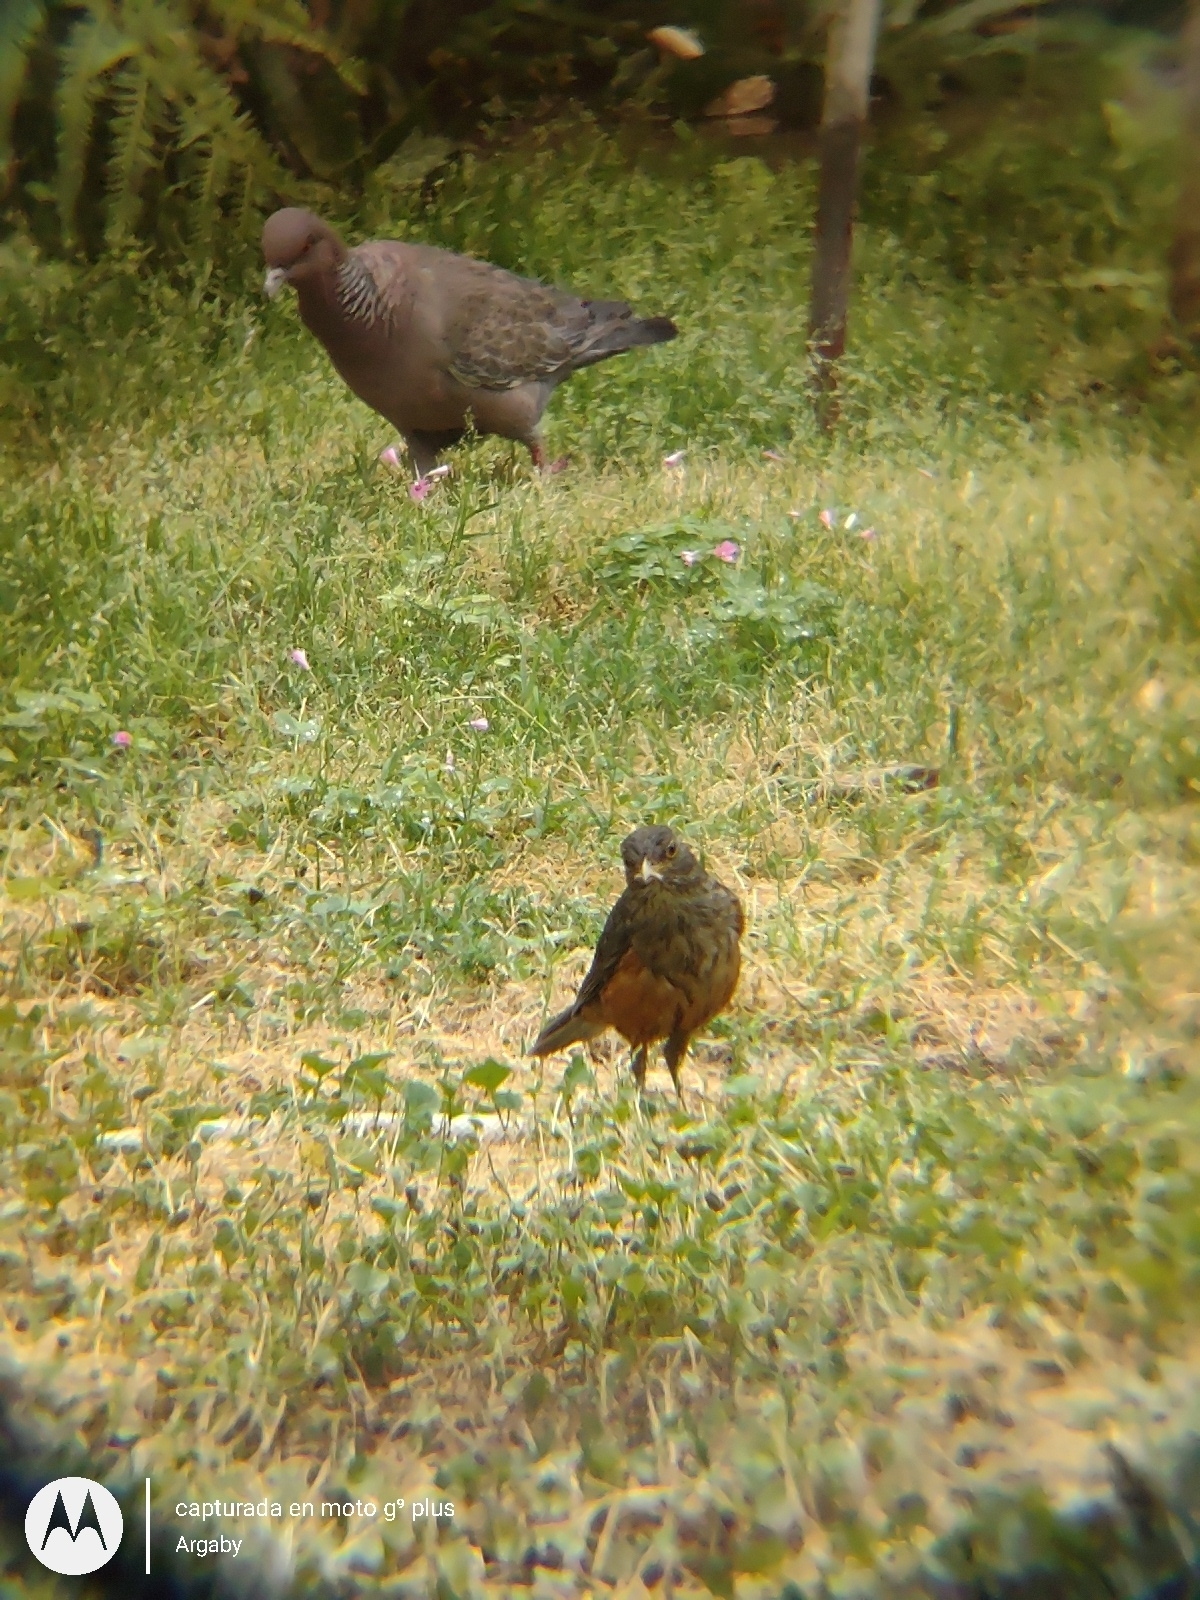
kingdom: Animalia
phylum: Chordata
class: Aves
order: Passeriformes
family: Turdidae
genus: Turdus
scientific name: Turdus rufiventris
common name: Rufous-bellied thrush
